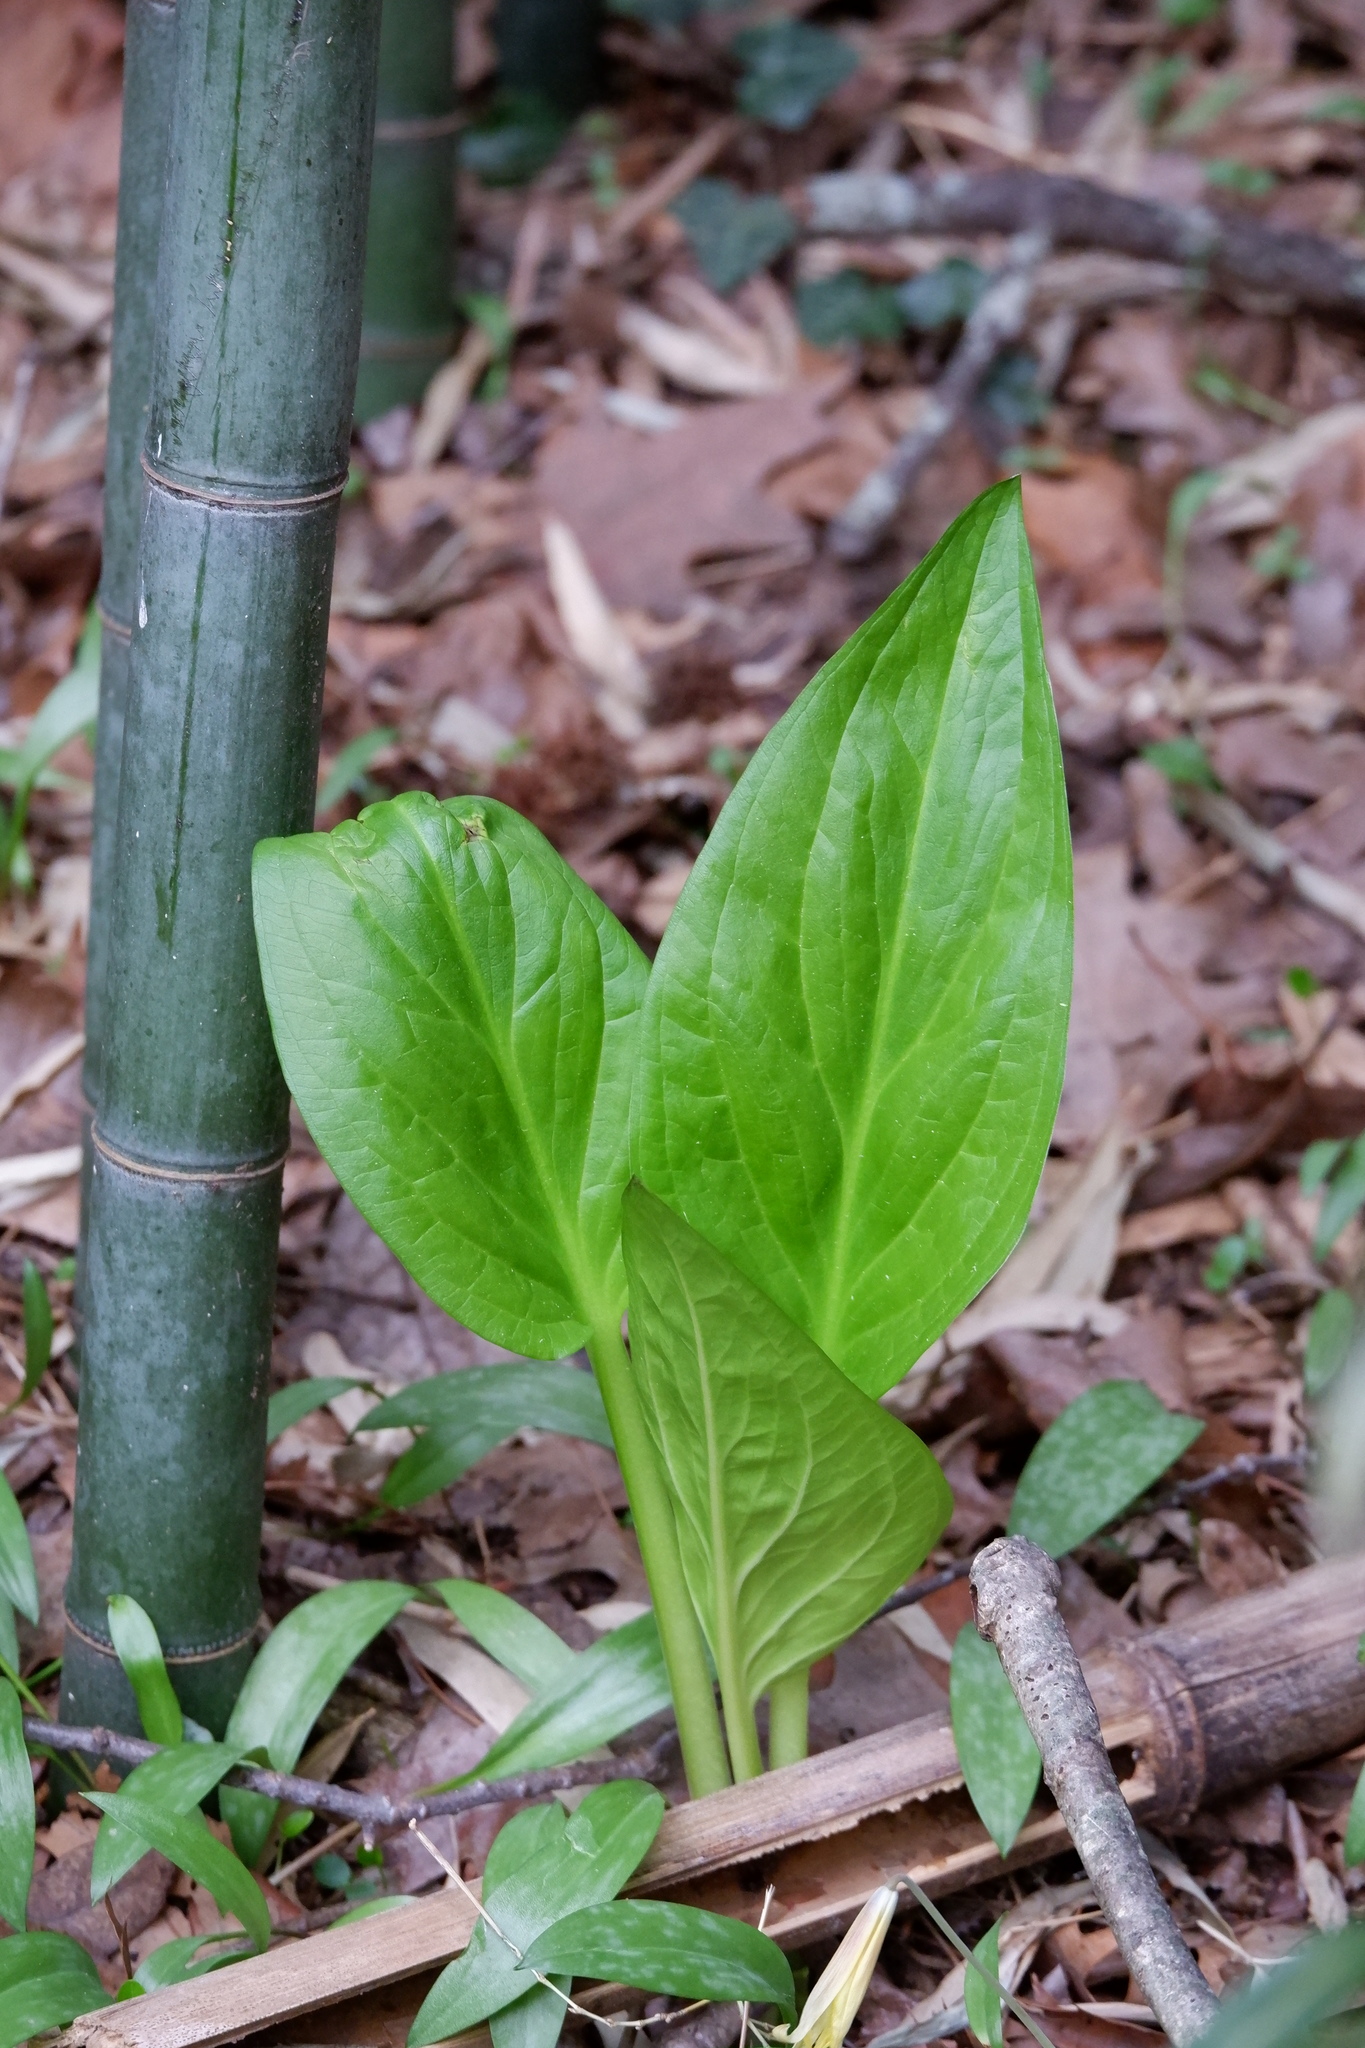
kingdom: Plantae
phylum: Tracheophyta
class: Liliopsida
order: Alismatales
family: Araceae
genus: Symplocarpus
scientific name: Symplocarpus foetidus
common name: Eastern skunk cabbage
